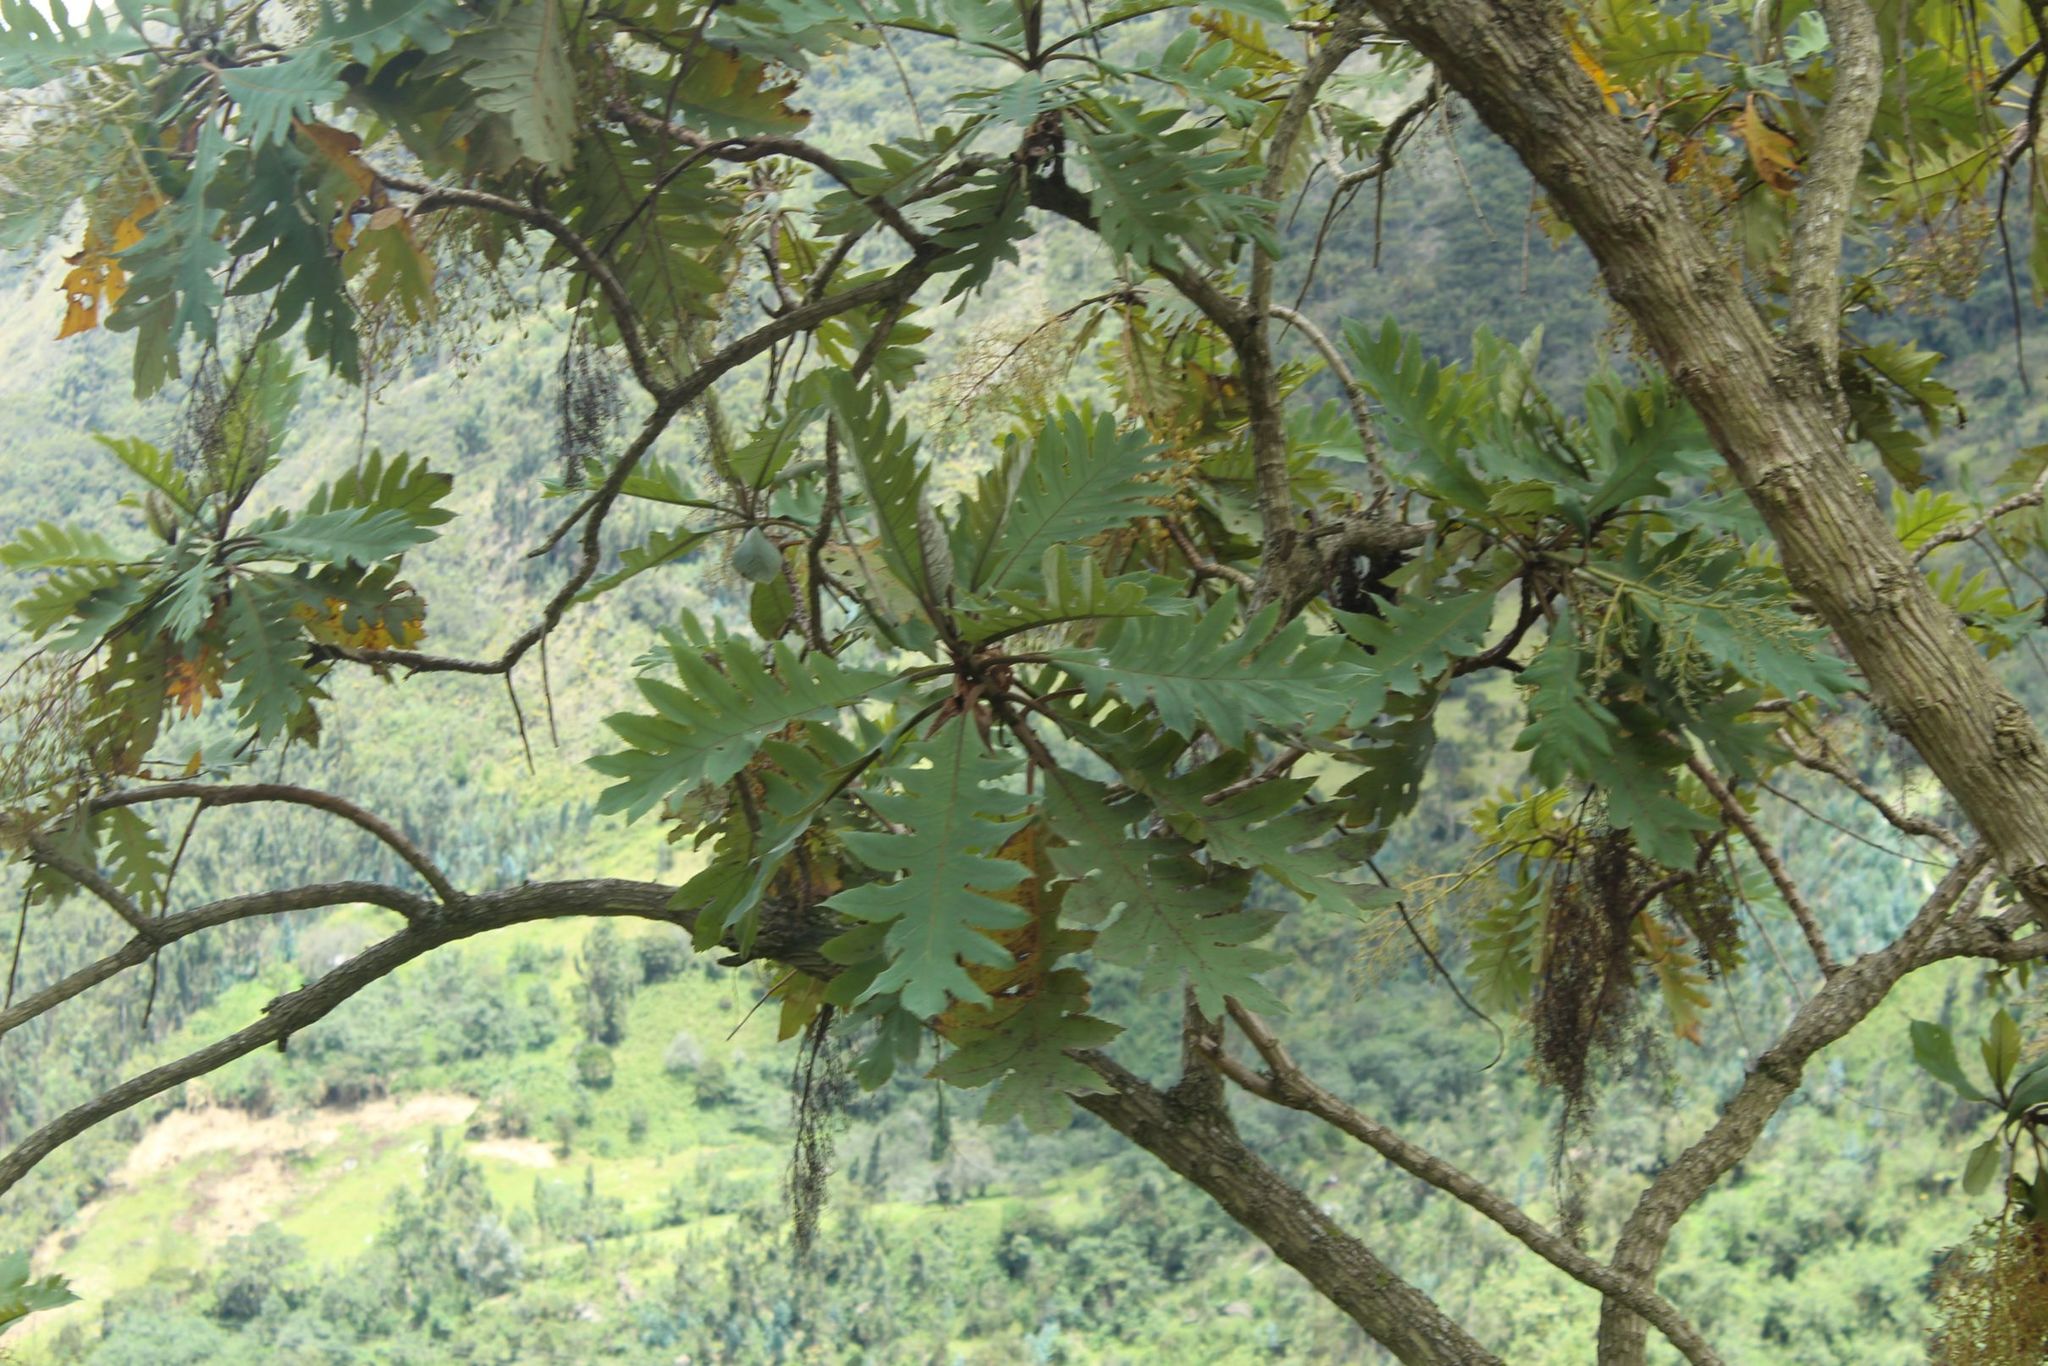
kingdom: Plantae
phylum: Tracheophyta
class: Magnoliopsida
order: Ranunculales
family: Papaveraceae
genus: Bocconia
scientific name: Bocconia frutescens
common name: Tree poppy
